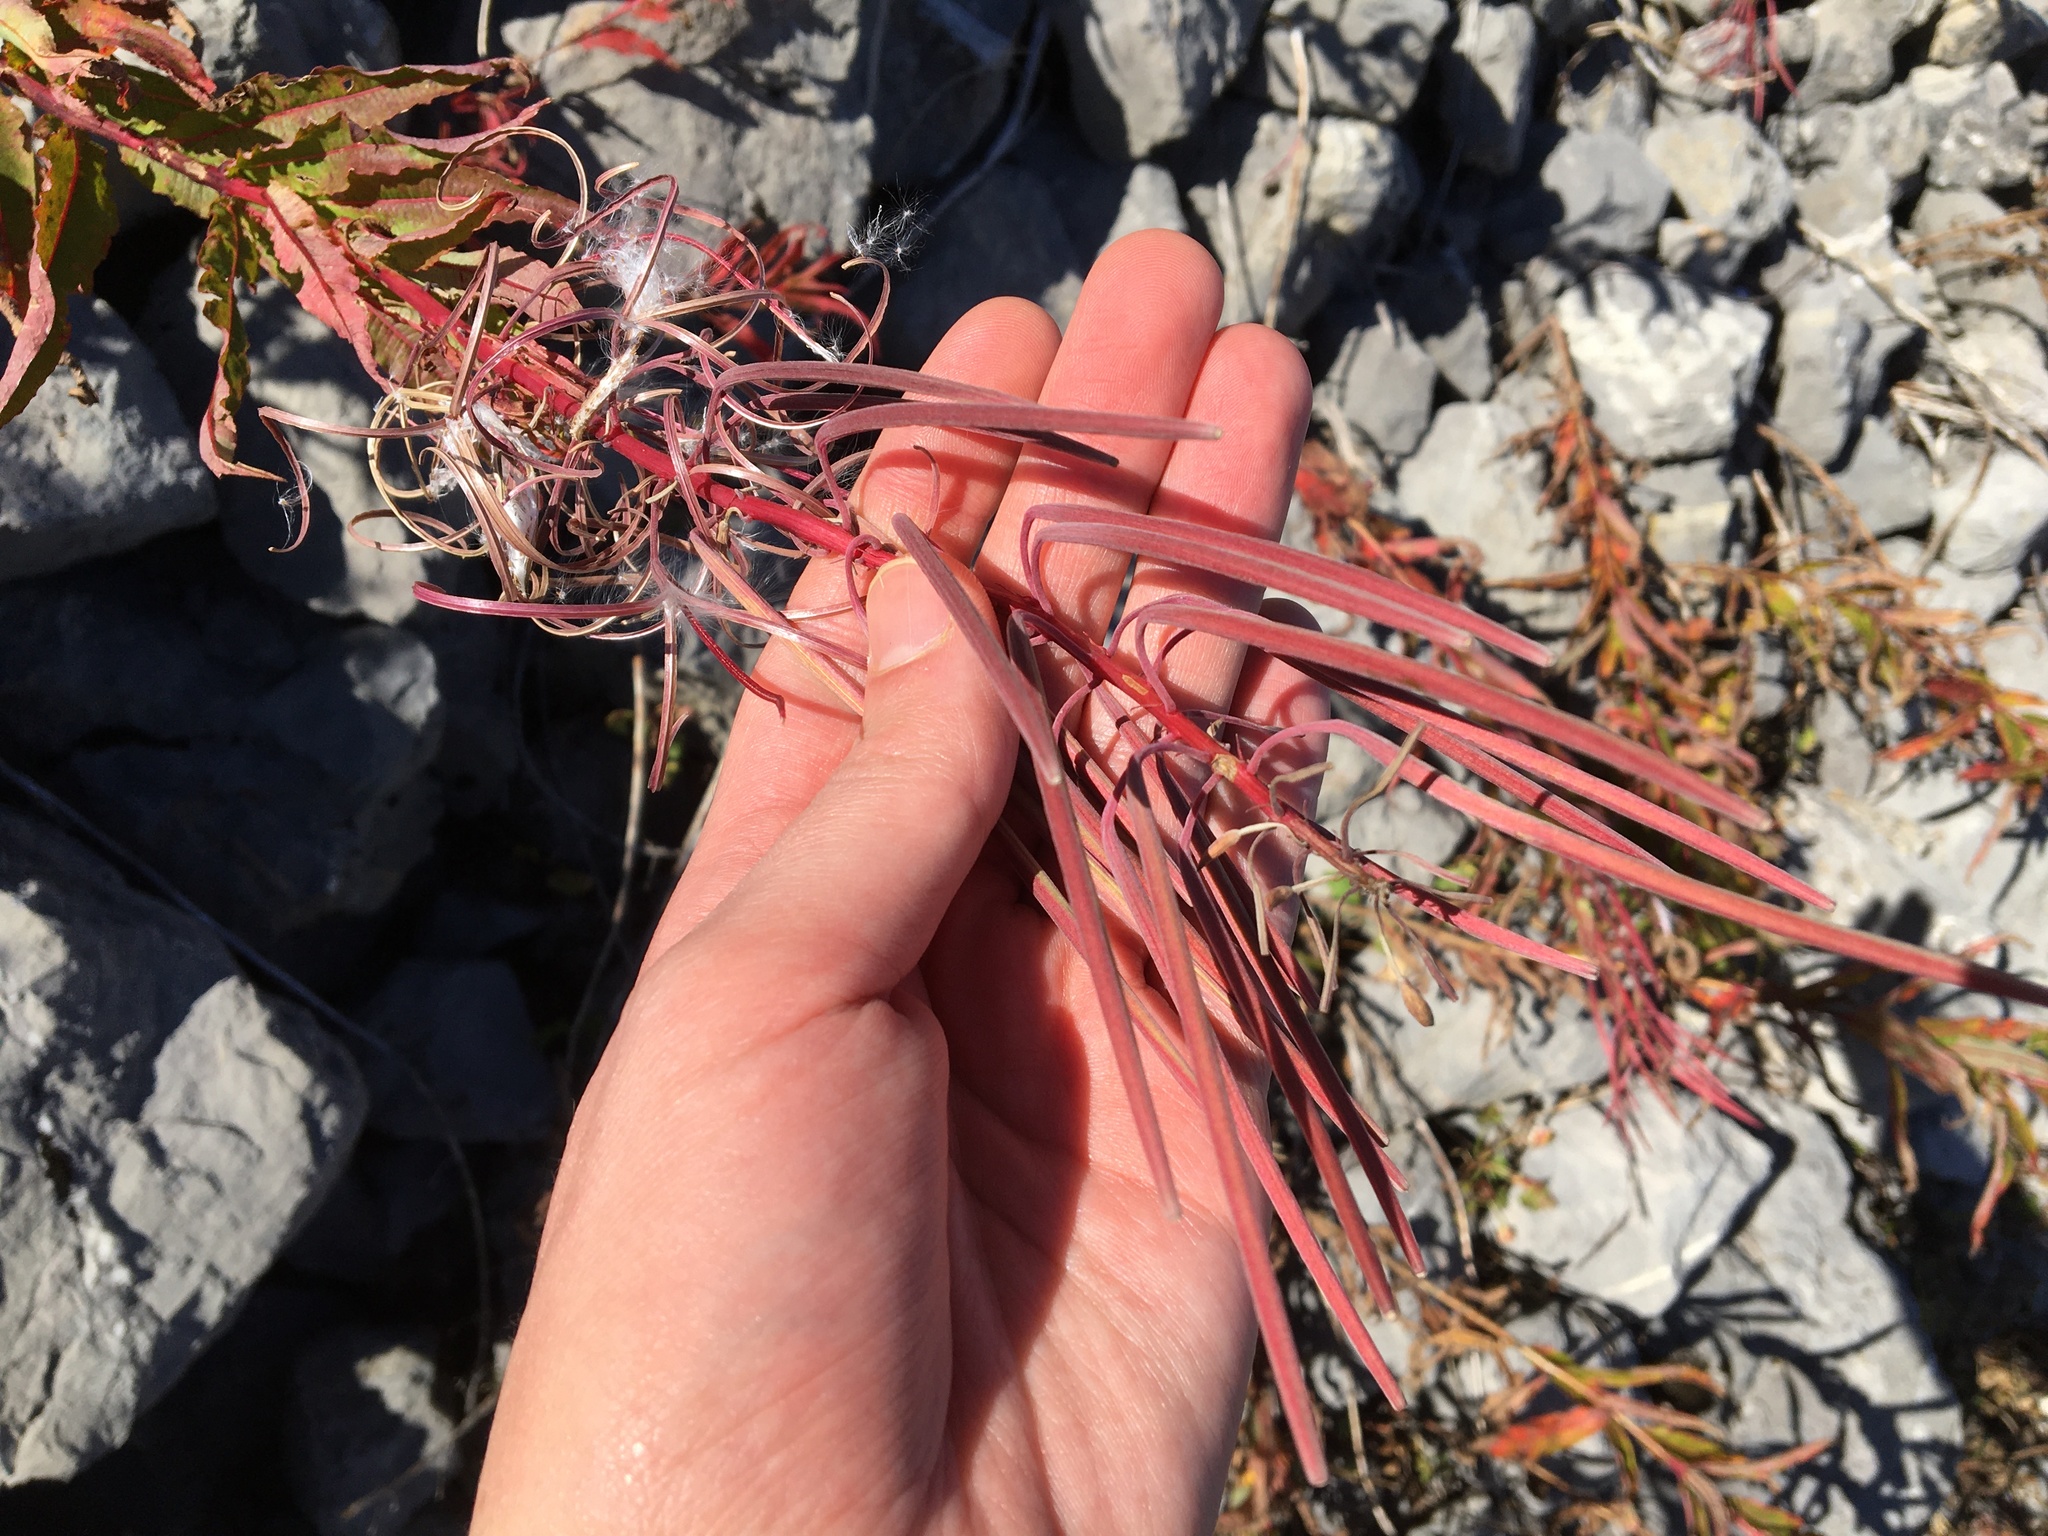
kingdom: Plantae
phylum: Tracheophyta
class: Magnoliopsida
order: Myrtales
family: Onagraceae
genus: Chamaenerion
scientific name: Chamaenerion angustifolium
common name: Fireweed
